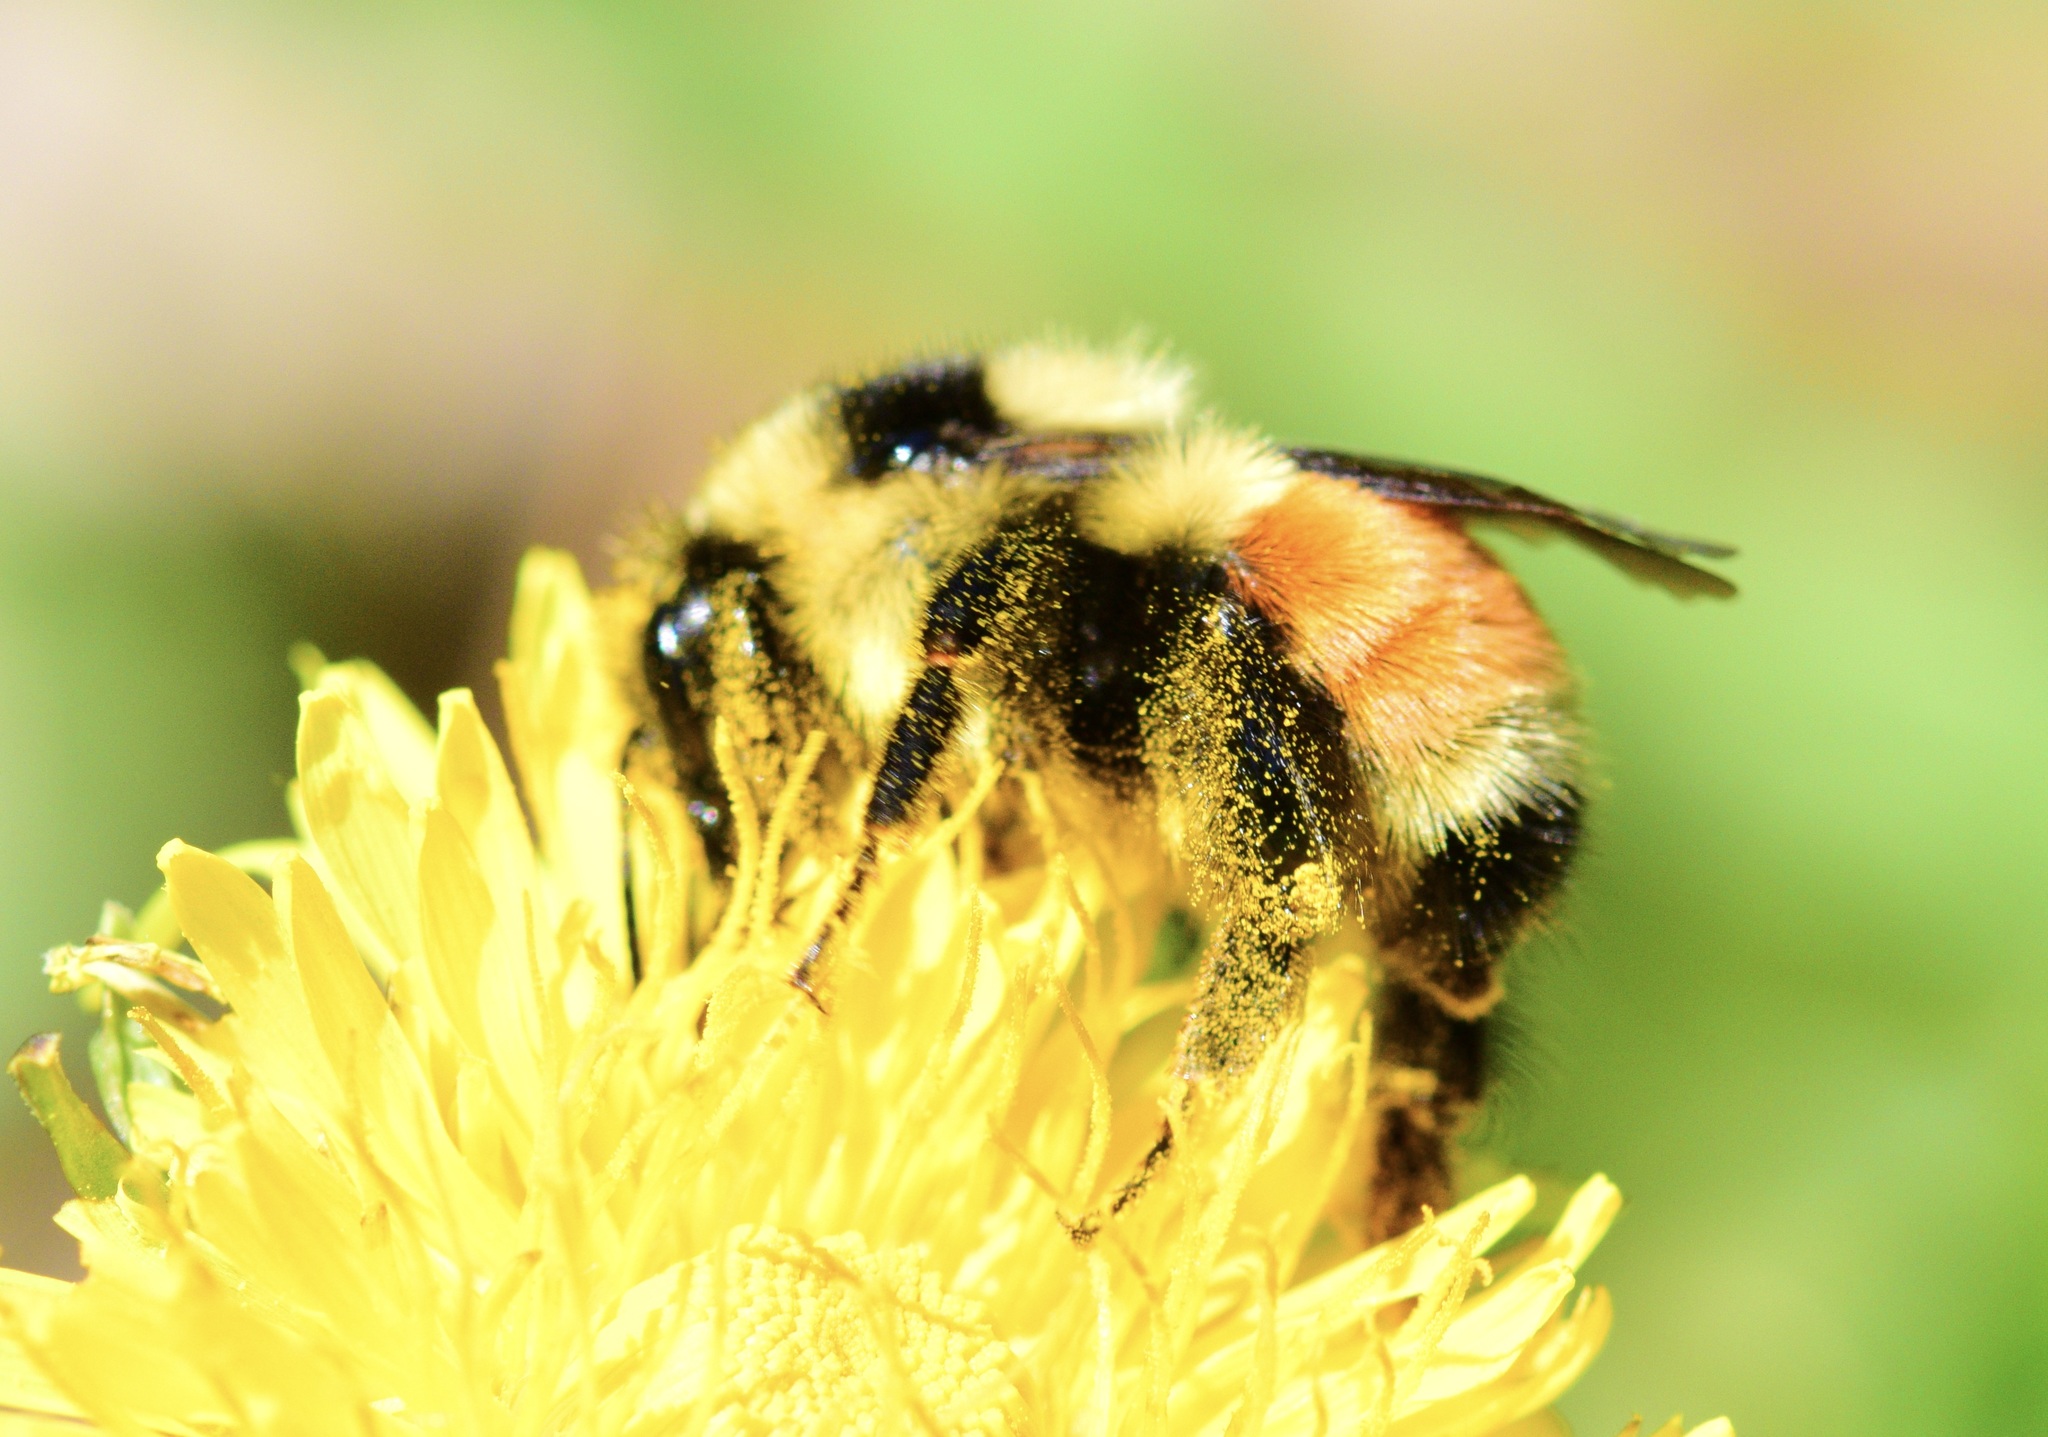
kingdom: Animalia
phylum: Arthropoda
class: Insecta
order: Hymenoptera
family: Apidae
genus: Bombus
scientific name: Bombus ternarius
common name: Tri-colored bumble bee
